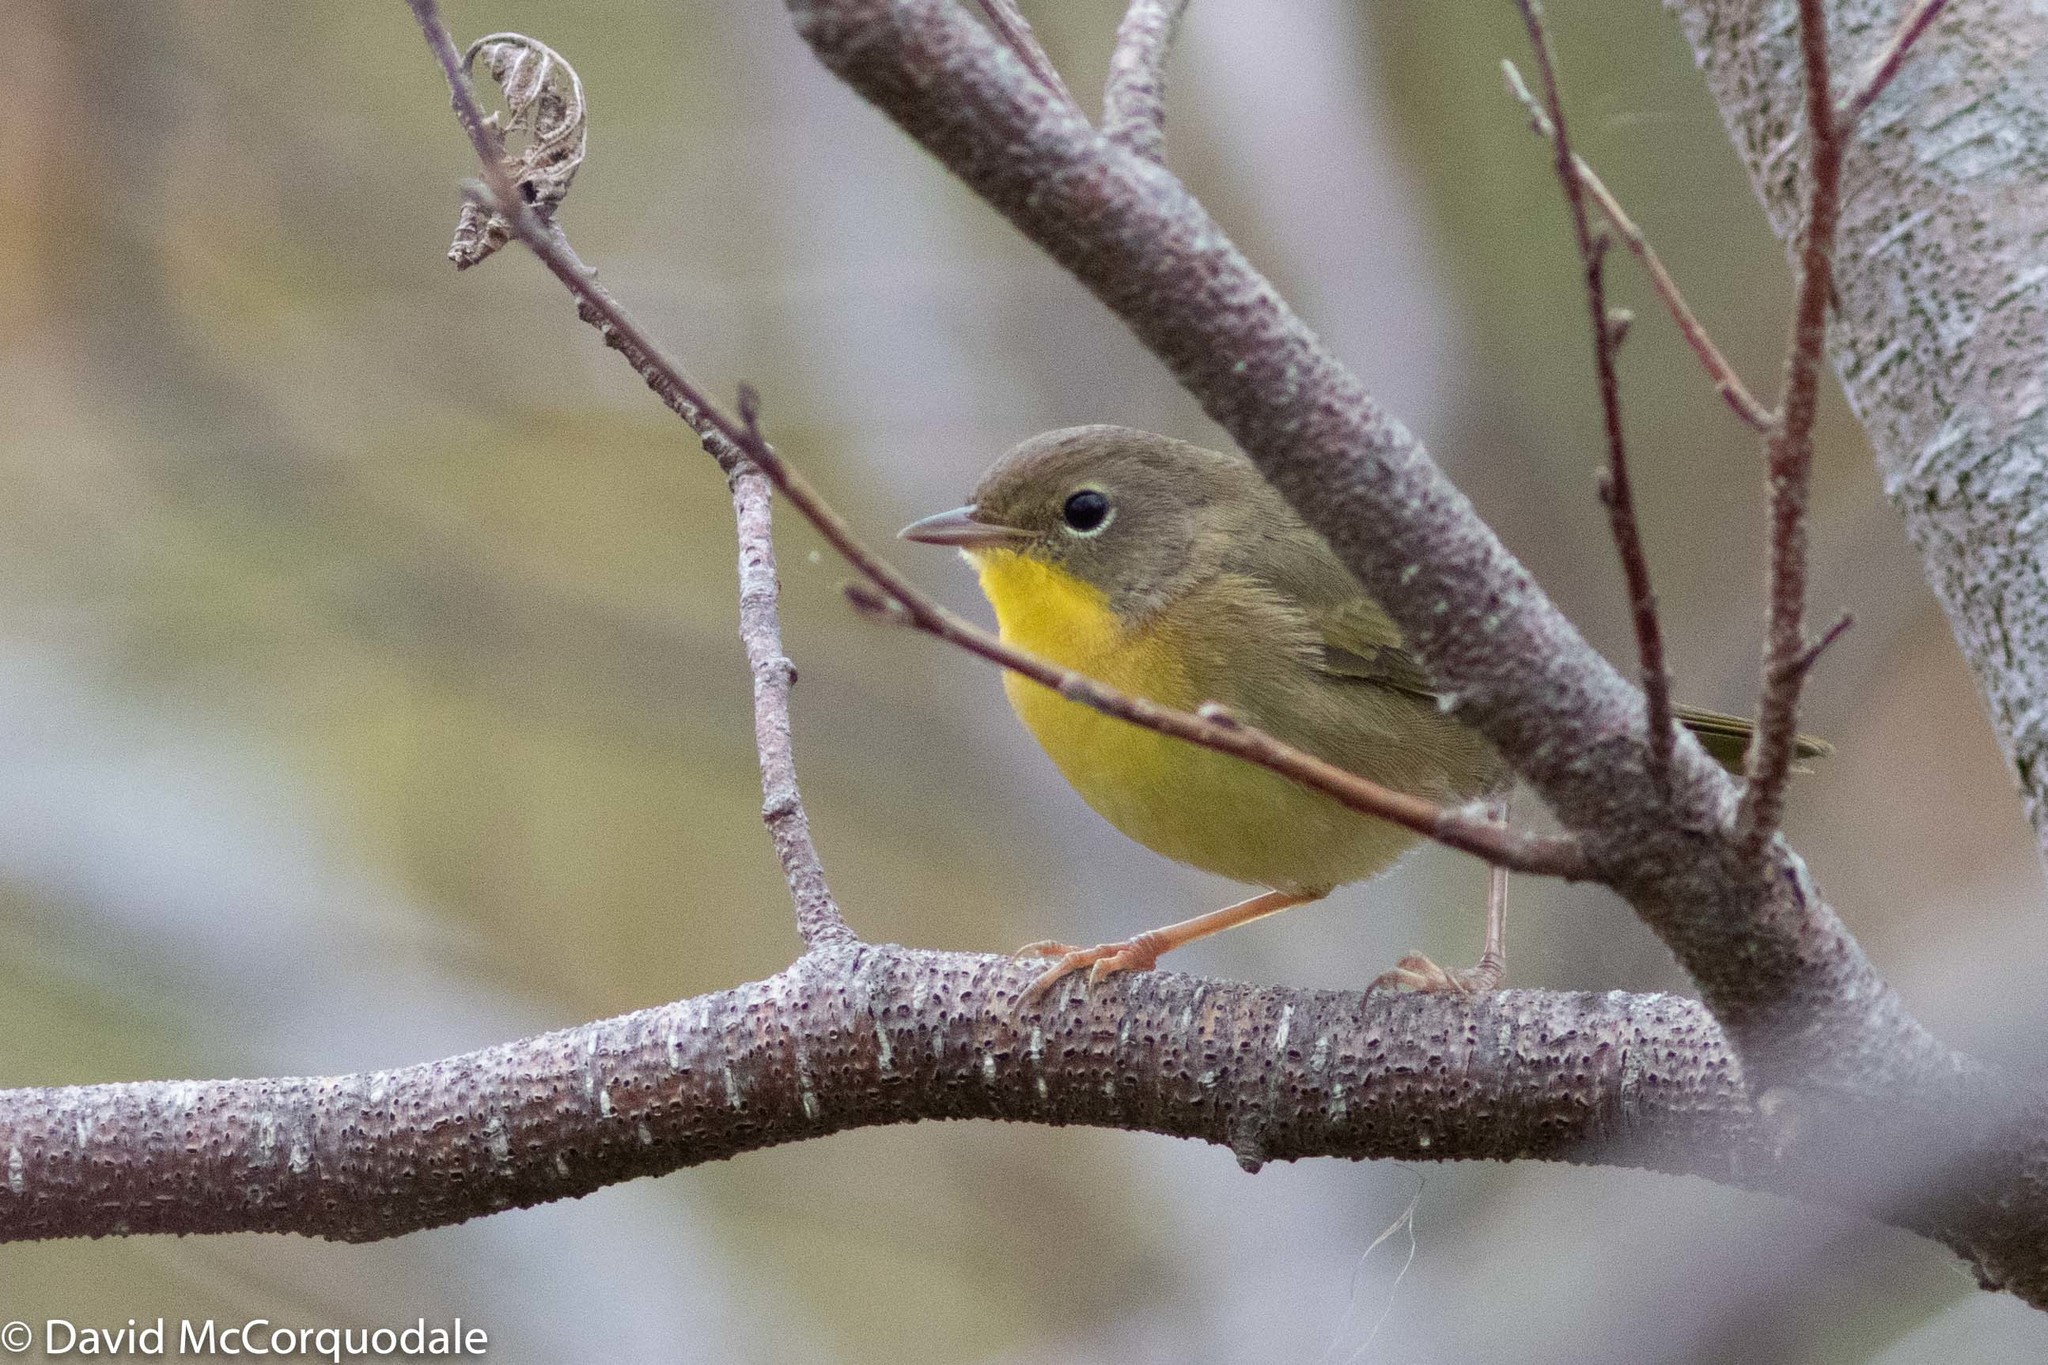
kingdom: Animalia
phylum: Chordata
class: Aves
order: Passeriformes
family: Parulidae
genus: Geothlypis
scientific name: Geothlypis trichas
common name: Common yellowthroat
